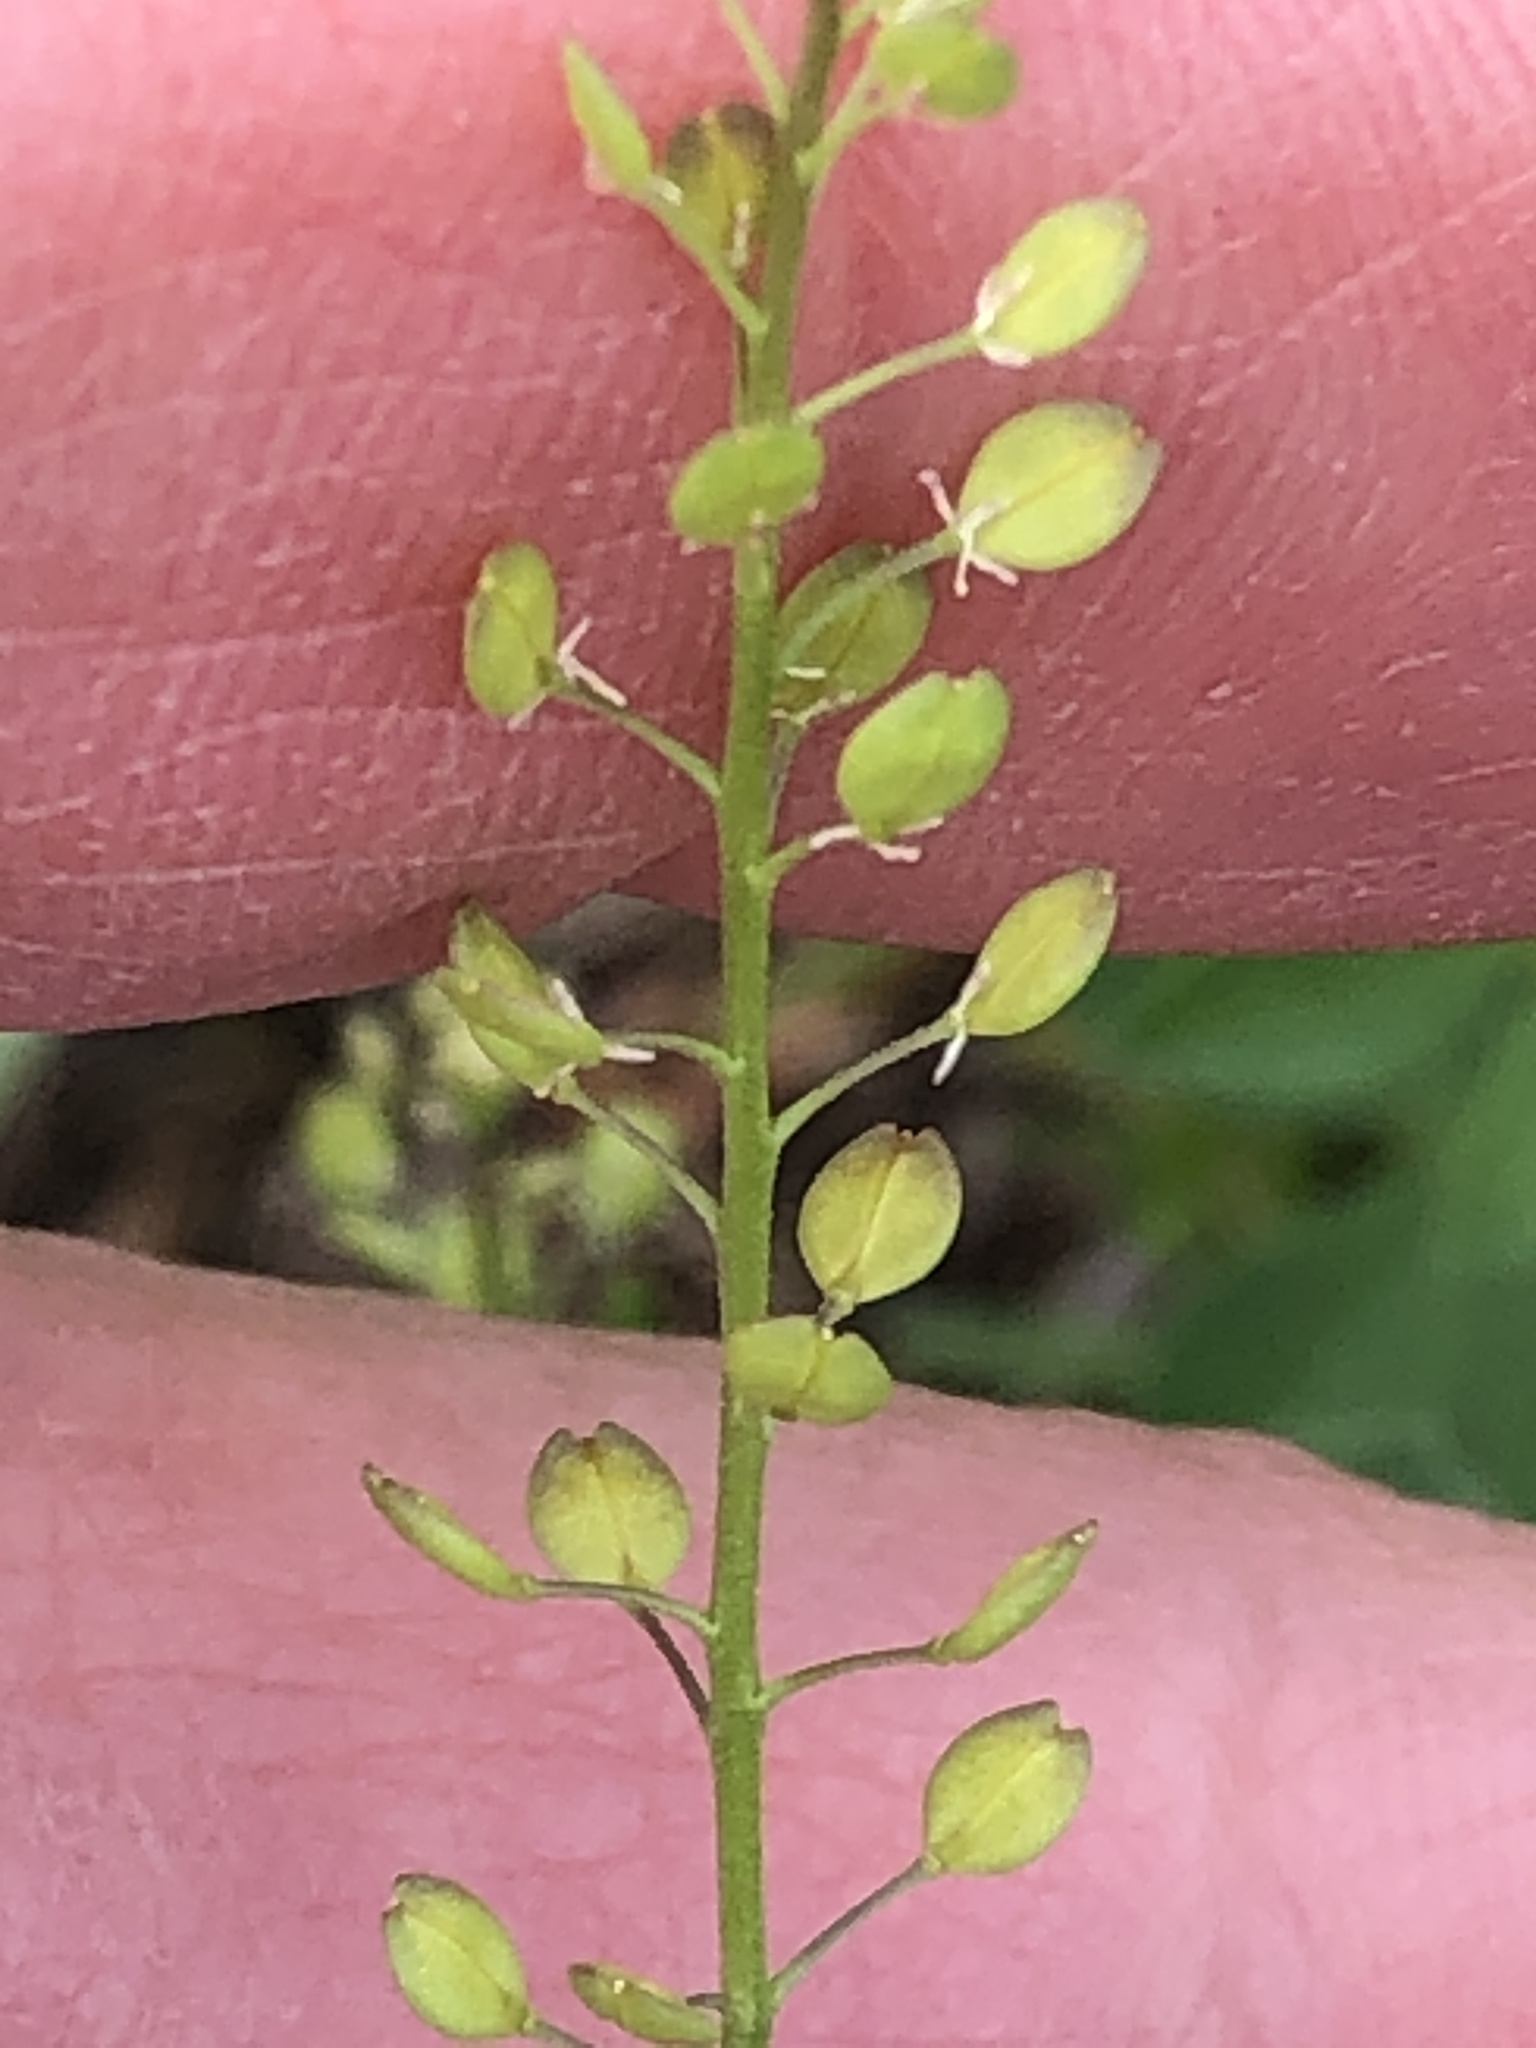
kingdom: Plantae
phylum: Tracheophyta
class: Magnoliopsida
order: Brassicales
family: Brassicaceae
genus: Lepidium
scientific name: Lepidium densiflorum
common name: Miner's pepperwort
